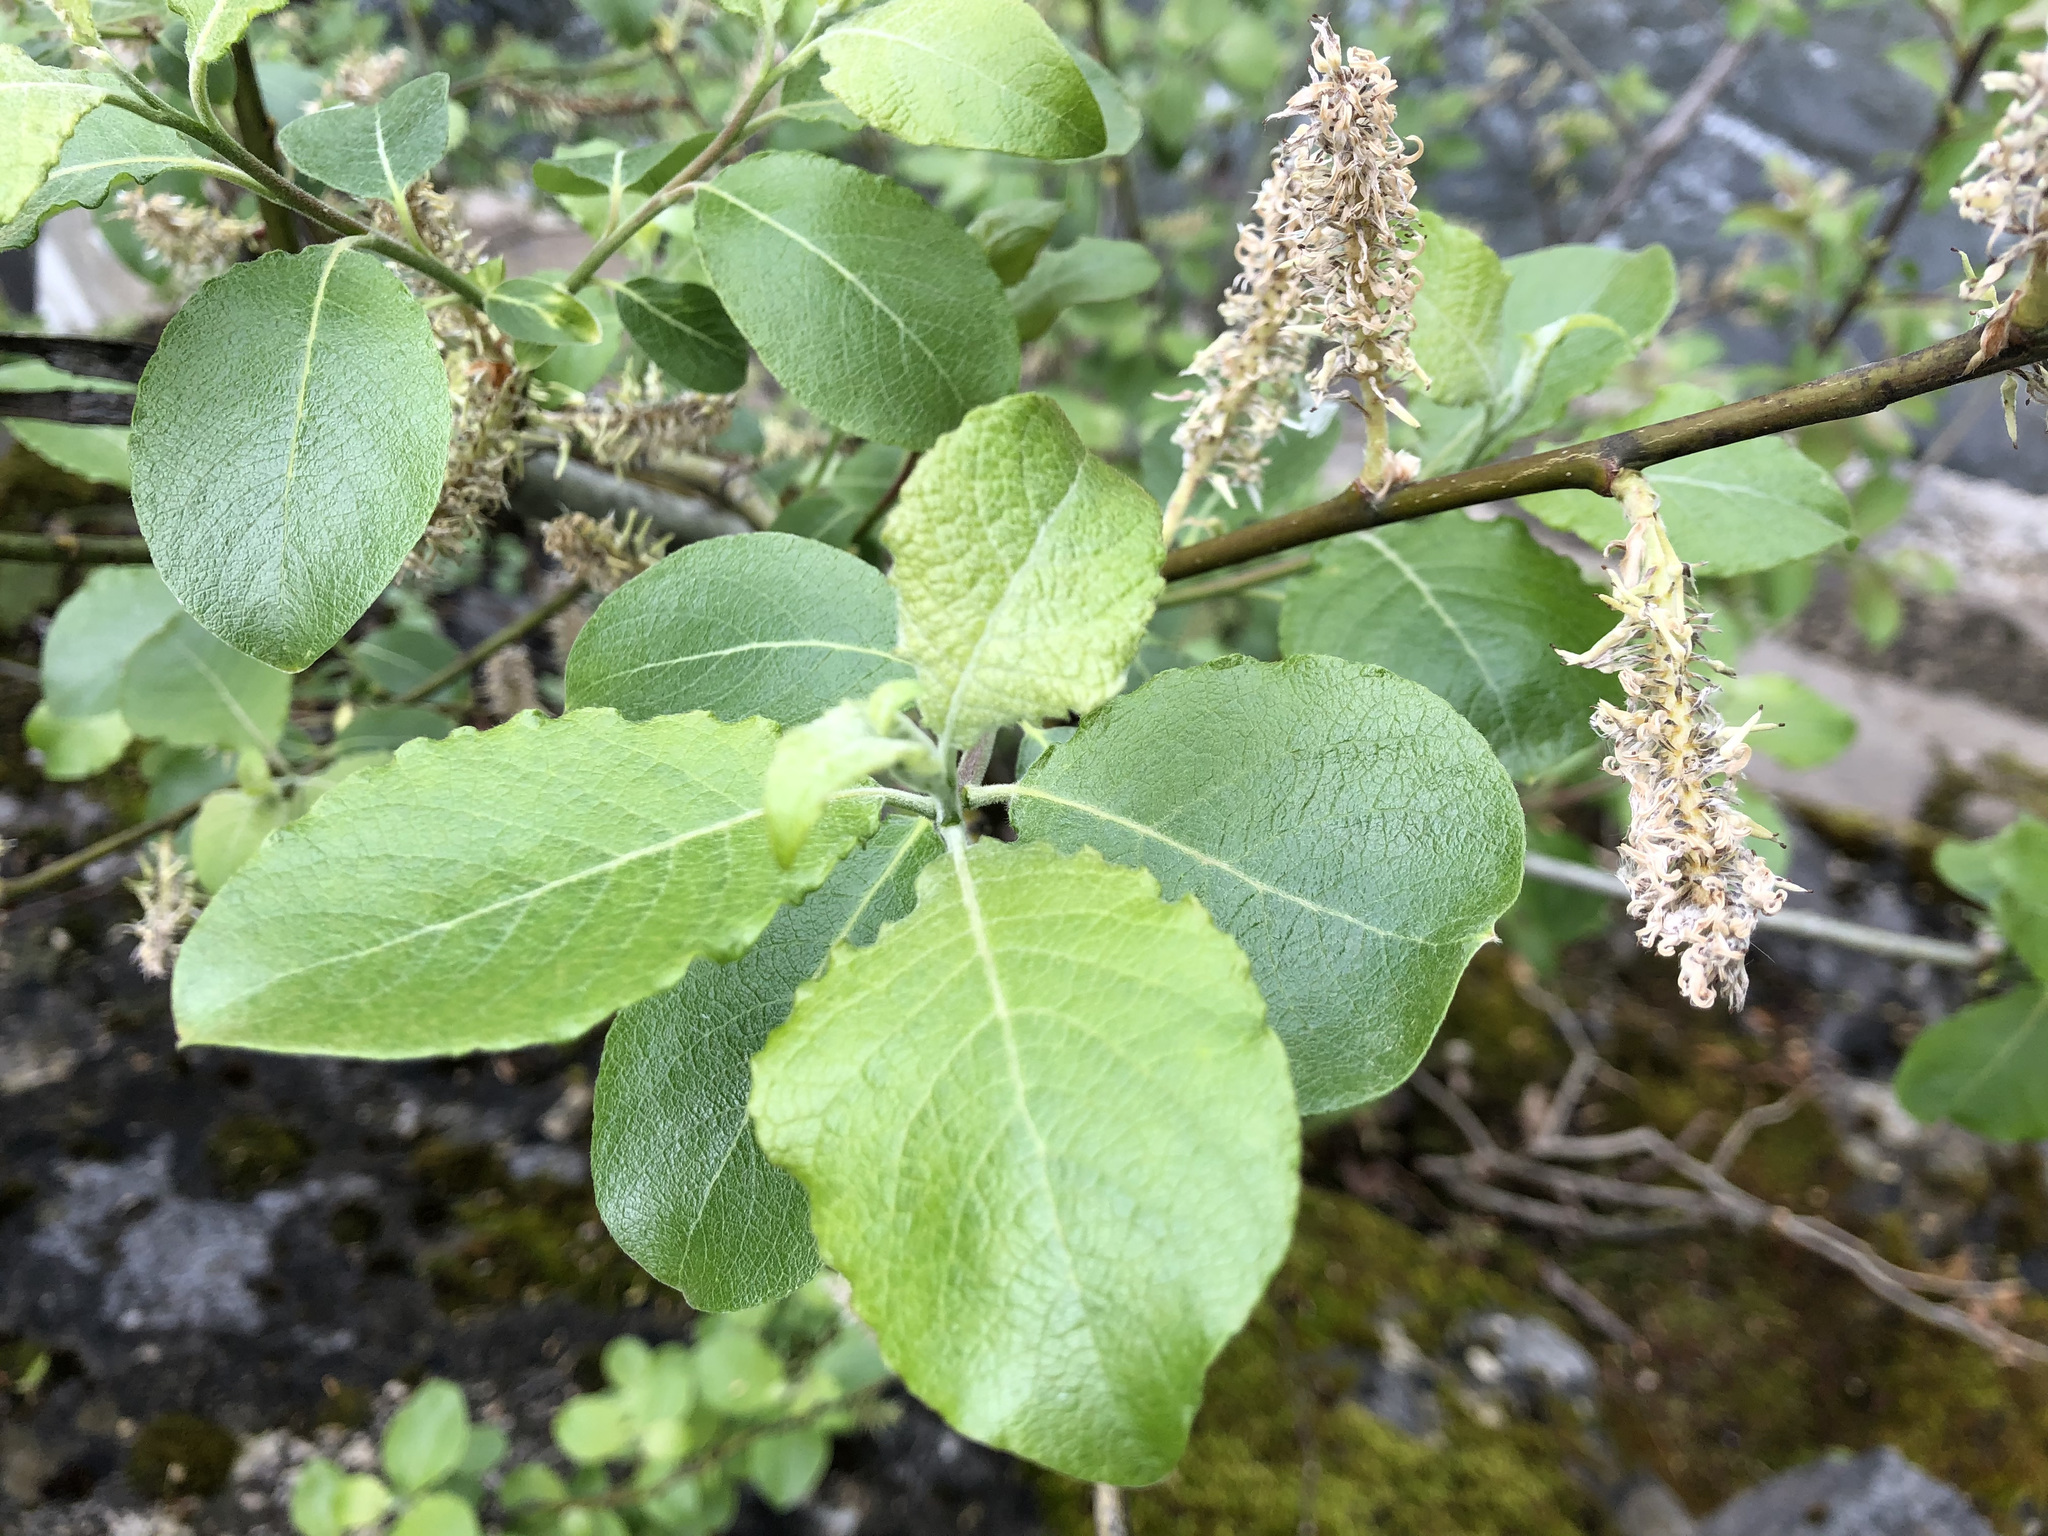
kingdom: Plantae
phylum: Tracheophyta
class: Magnoliopsida
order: Malpighiales
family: Salicaceae
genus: Salix
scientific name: Salix caprea
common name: Goat willow
